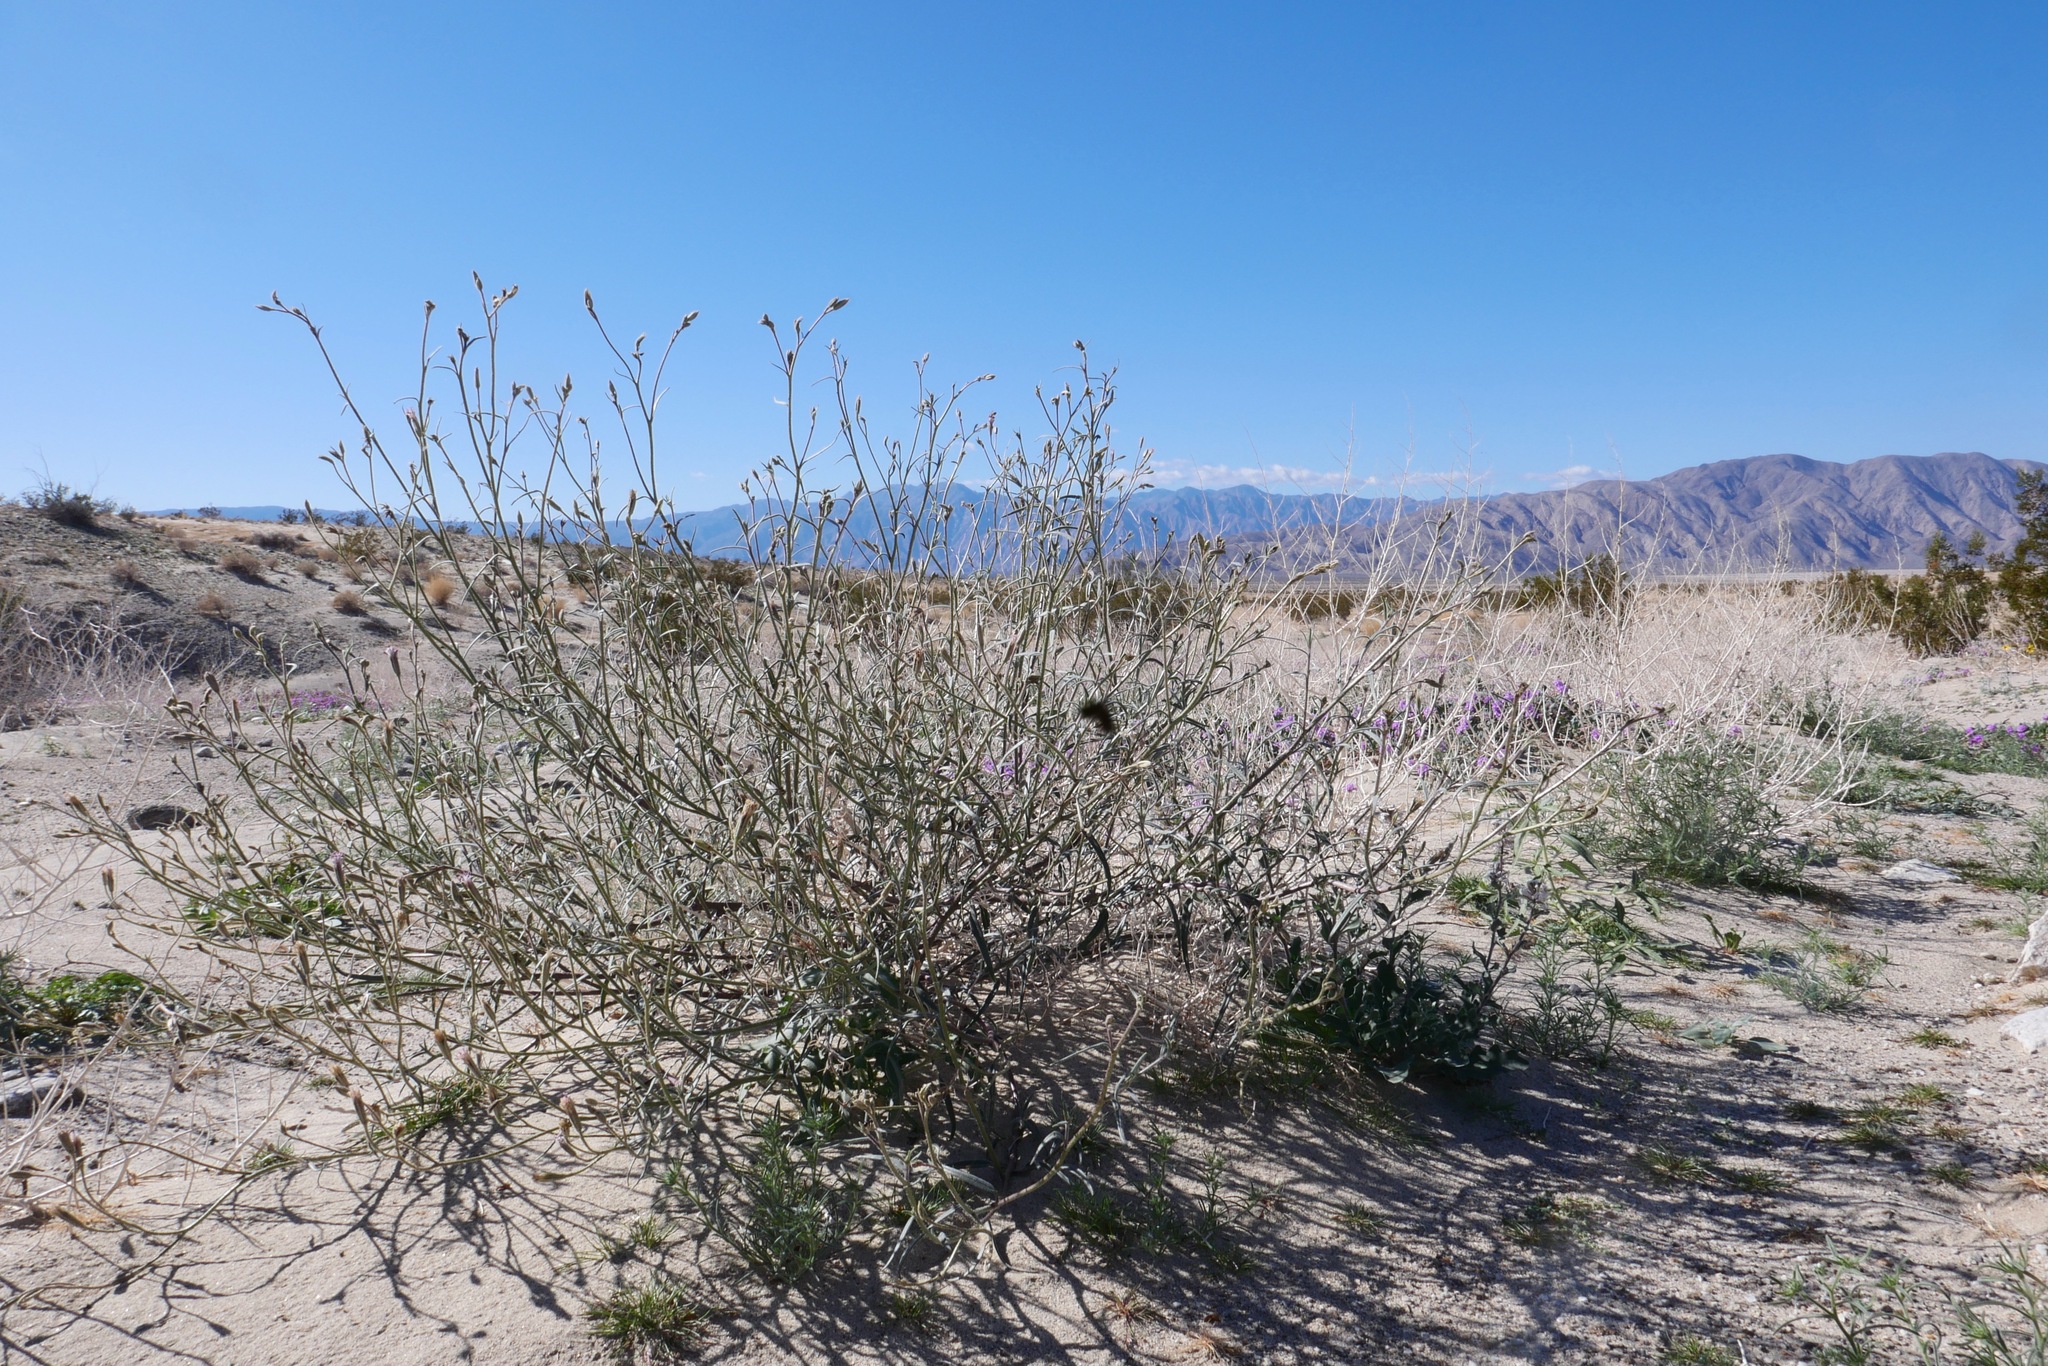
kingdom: Plantae
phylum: Tracheophyta
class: Magnoliopsida
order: Asterales
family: Asteraceae
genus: Palafoxia
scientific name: Palafoxia arida
